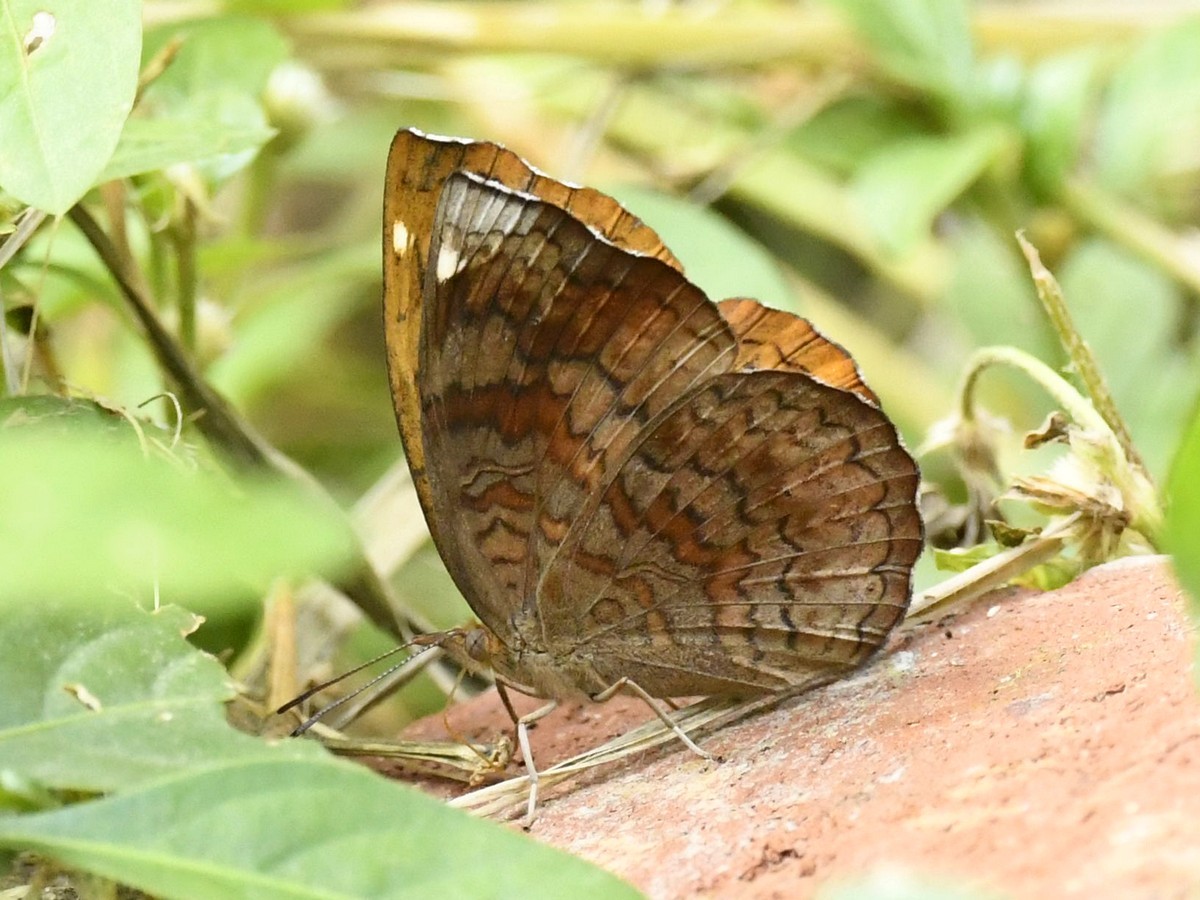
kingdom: Animalia
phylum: Arthropoda
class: Insecta
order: Lepidoptera
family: Nymphalidae
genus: Ariadne
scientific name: Ariadne merione
